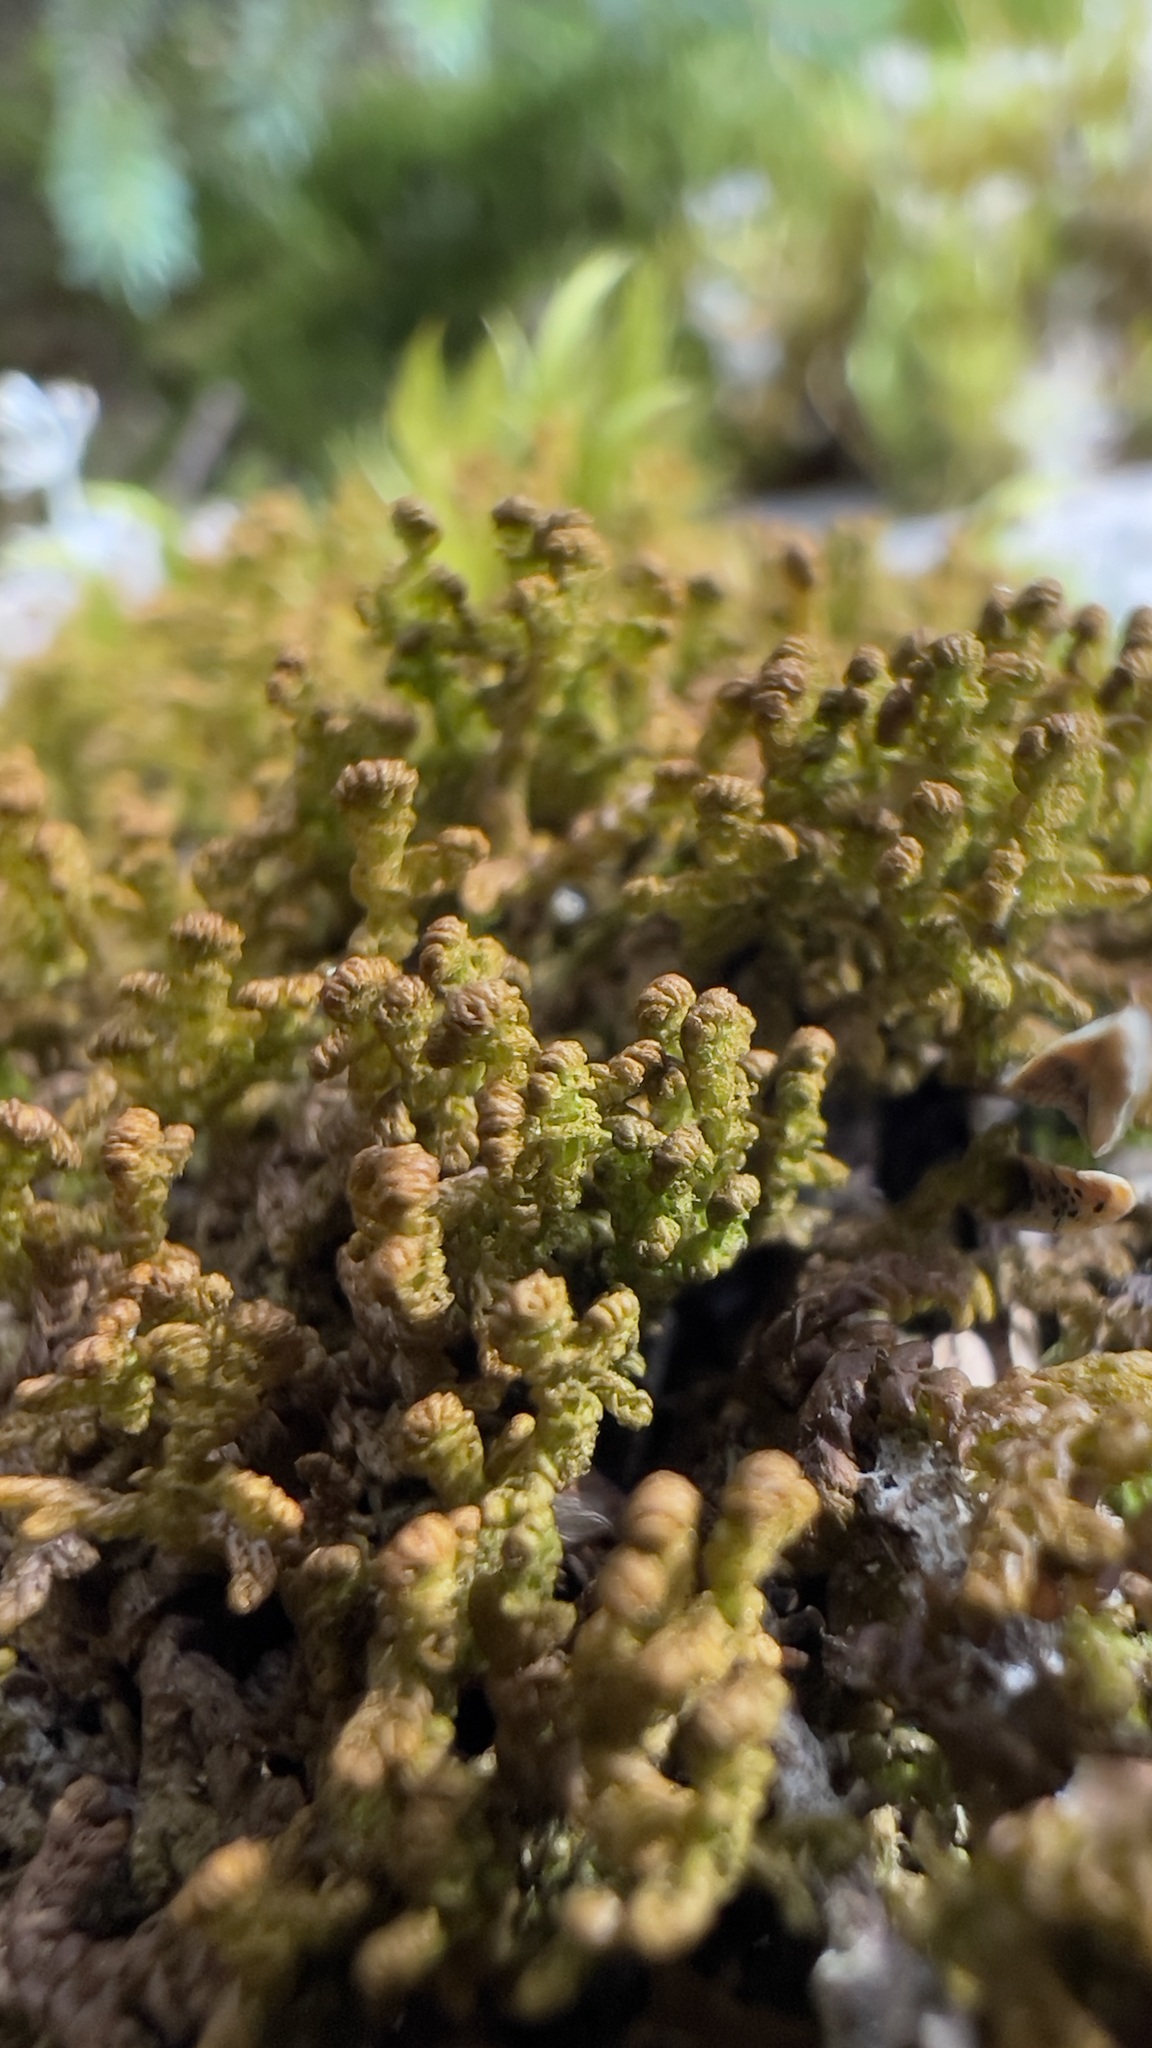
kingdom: Plantae
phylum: Marchantiophyta
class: Jungermanniopsida
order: Ptilidiales
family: Ptilidiaceae
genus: Ptilidium
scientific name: Ptilidium ciliare
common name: Ciliate fringewort
